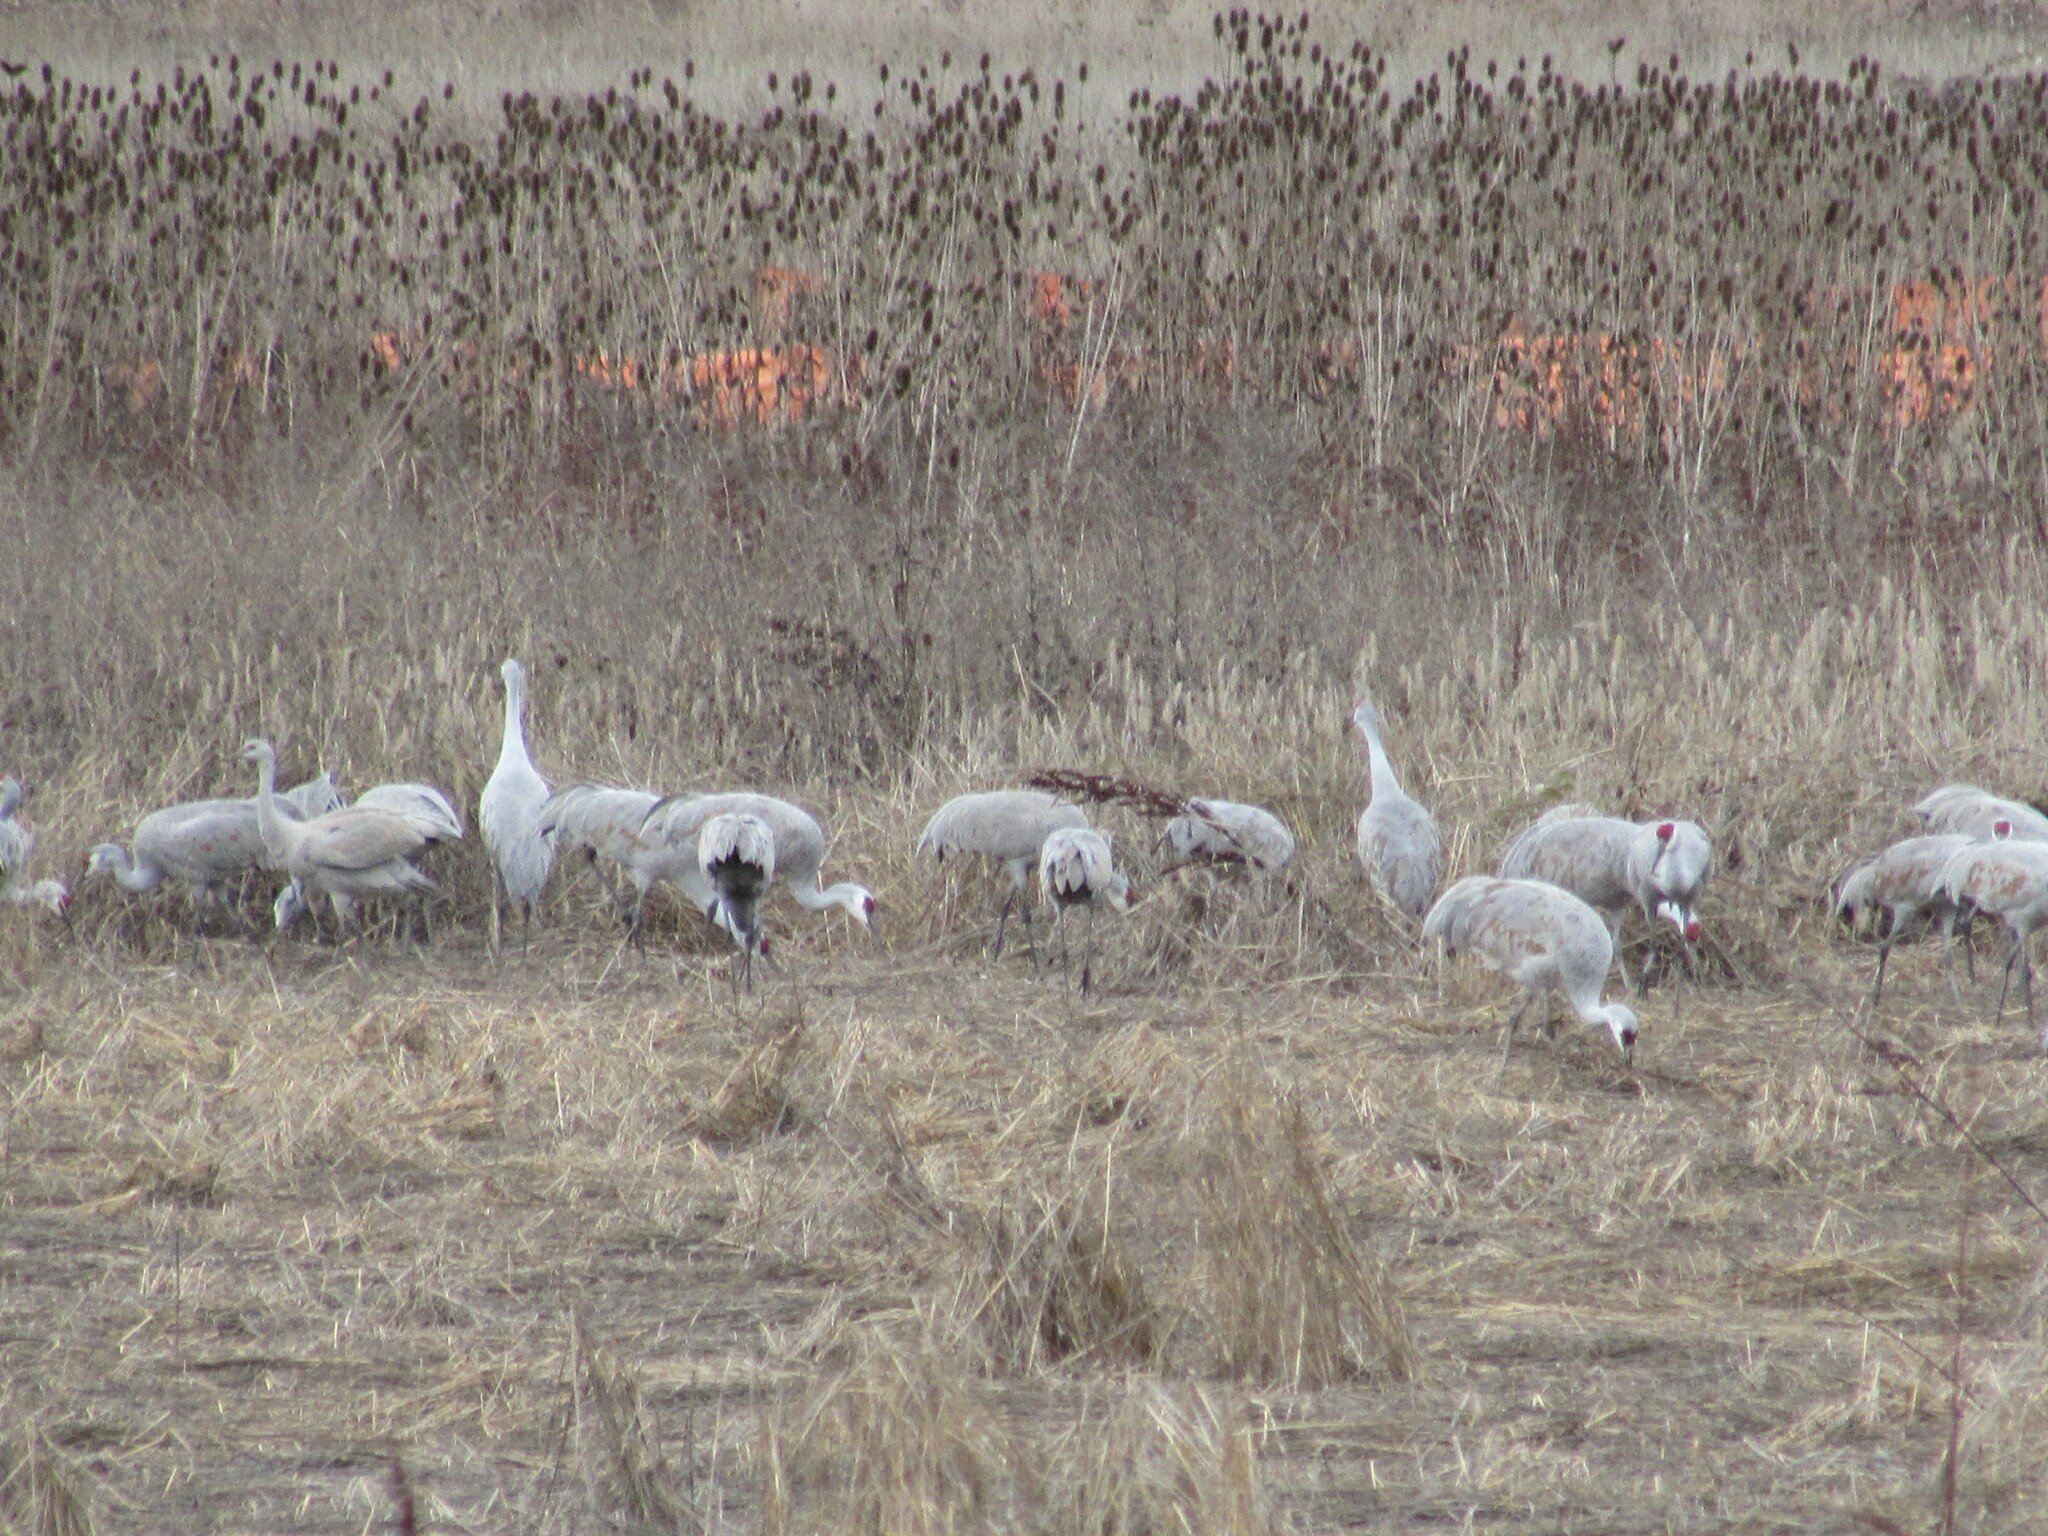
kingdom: Animalia
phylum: Chordata
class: Aves
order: Gruiformes
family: Gruidae
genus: Grus
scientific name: Grus canadensis
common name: Sandhill crane
